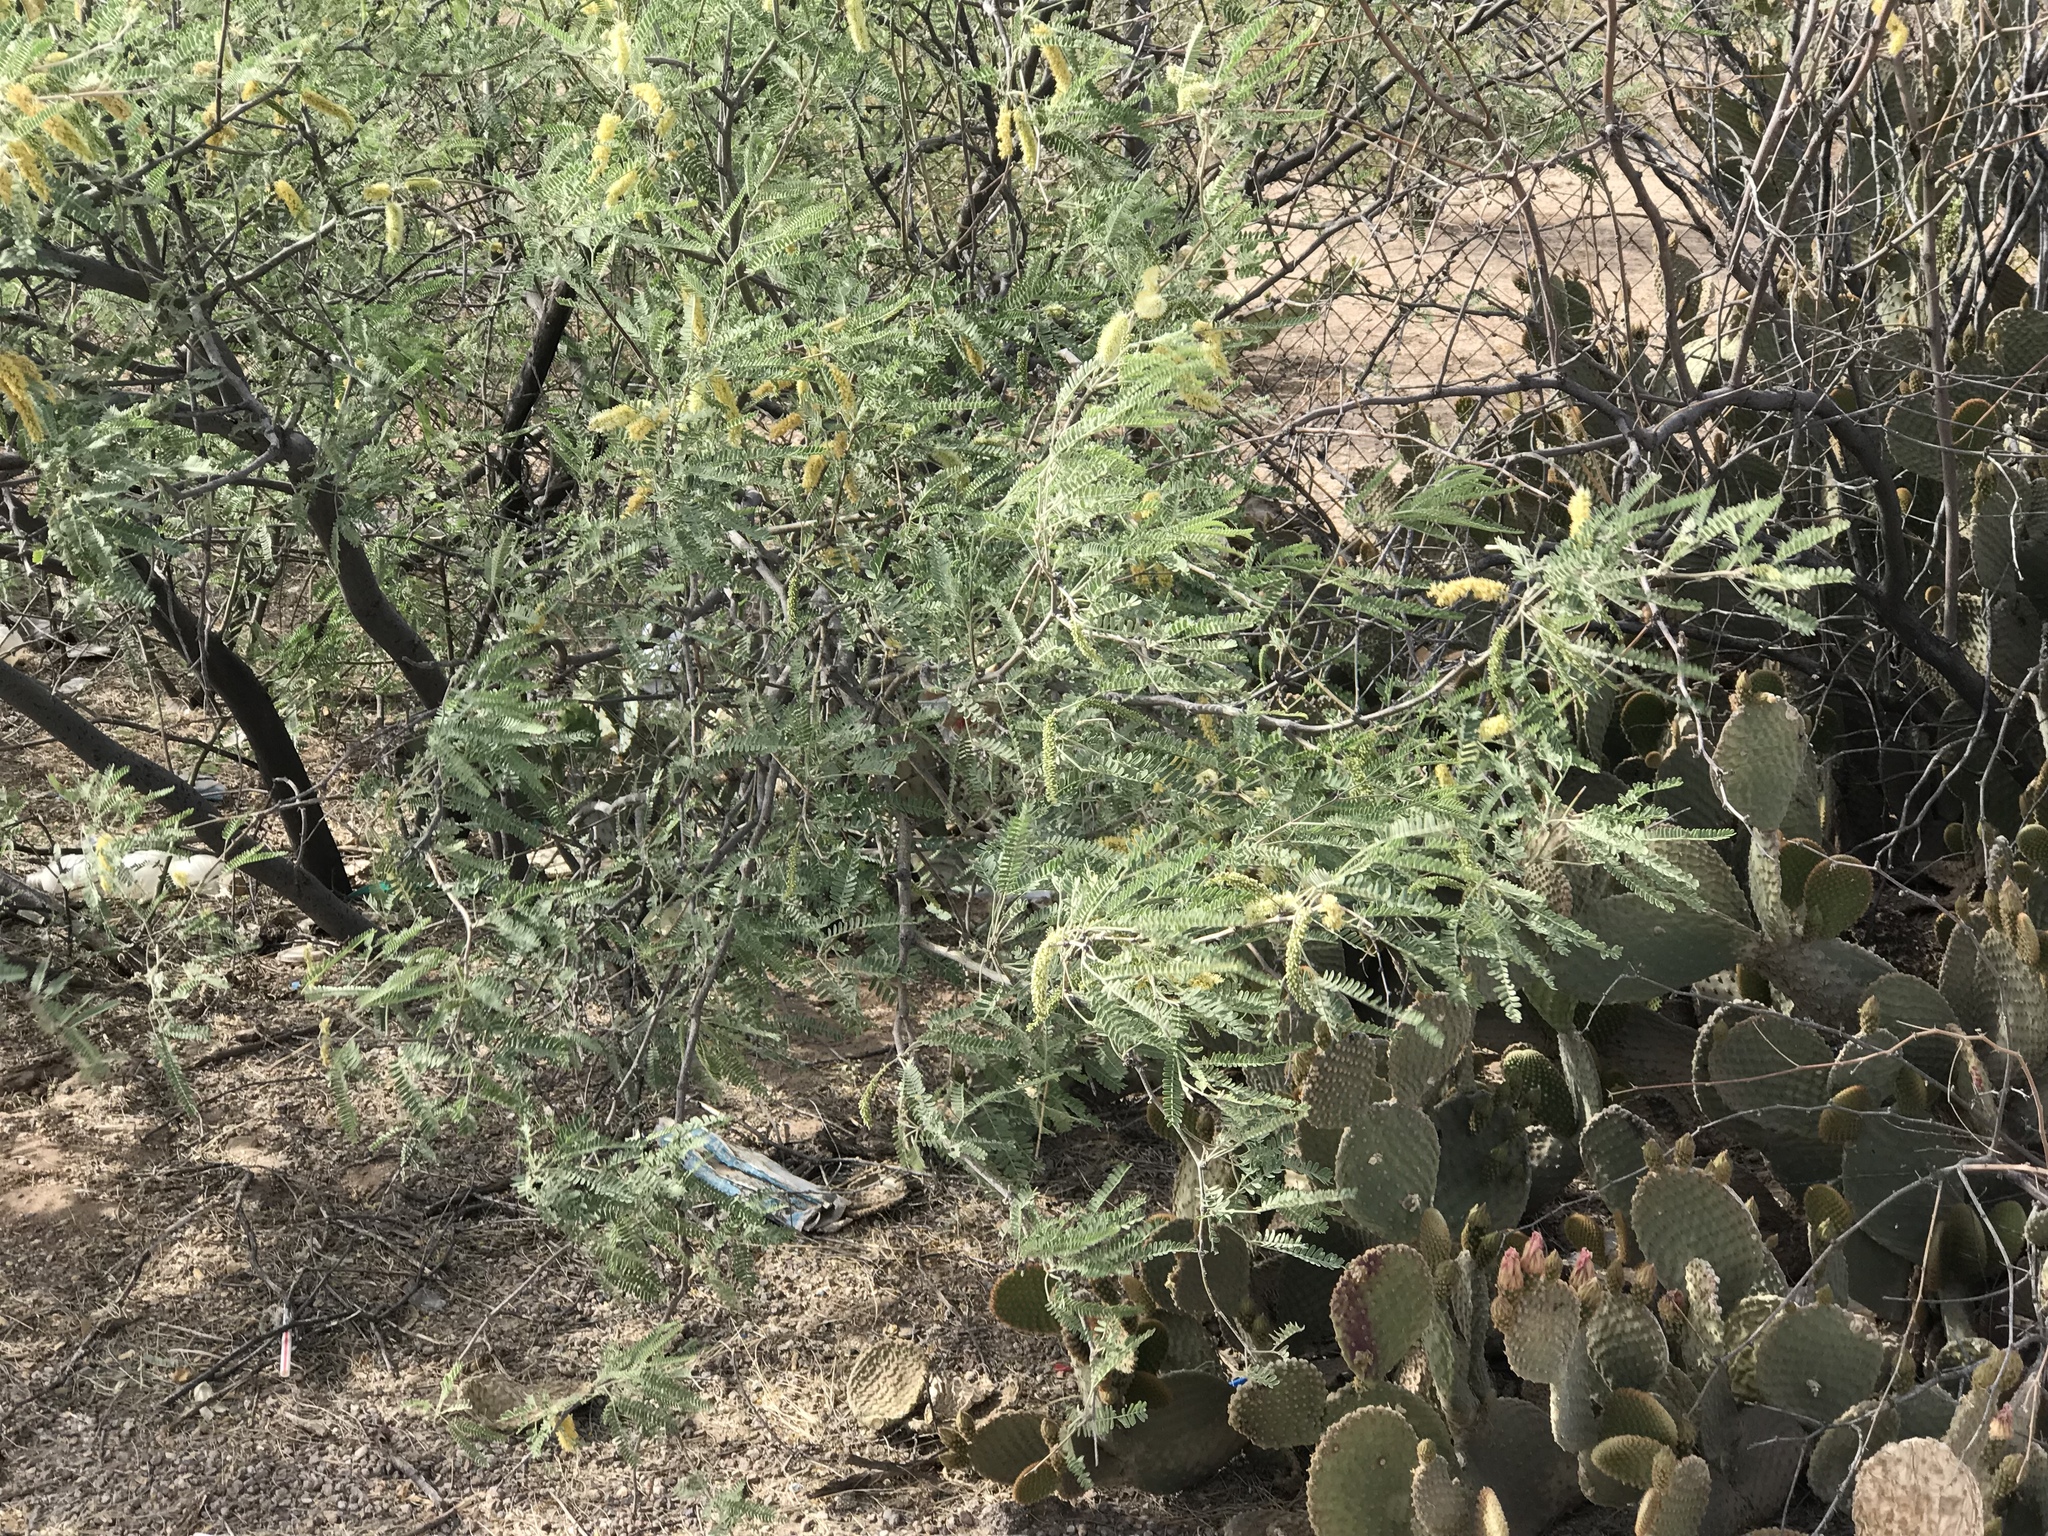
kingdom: Plantae
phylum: Tracheophyta
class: Magnoliopsida
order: Fabales
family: Fabaceae
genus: Prosopis
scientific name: Prosopis velutina
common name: Velvet mesquite
